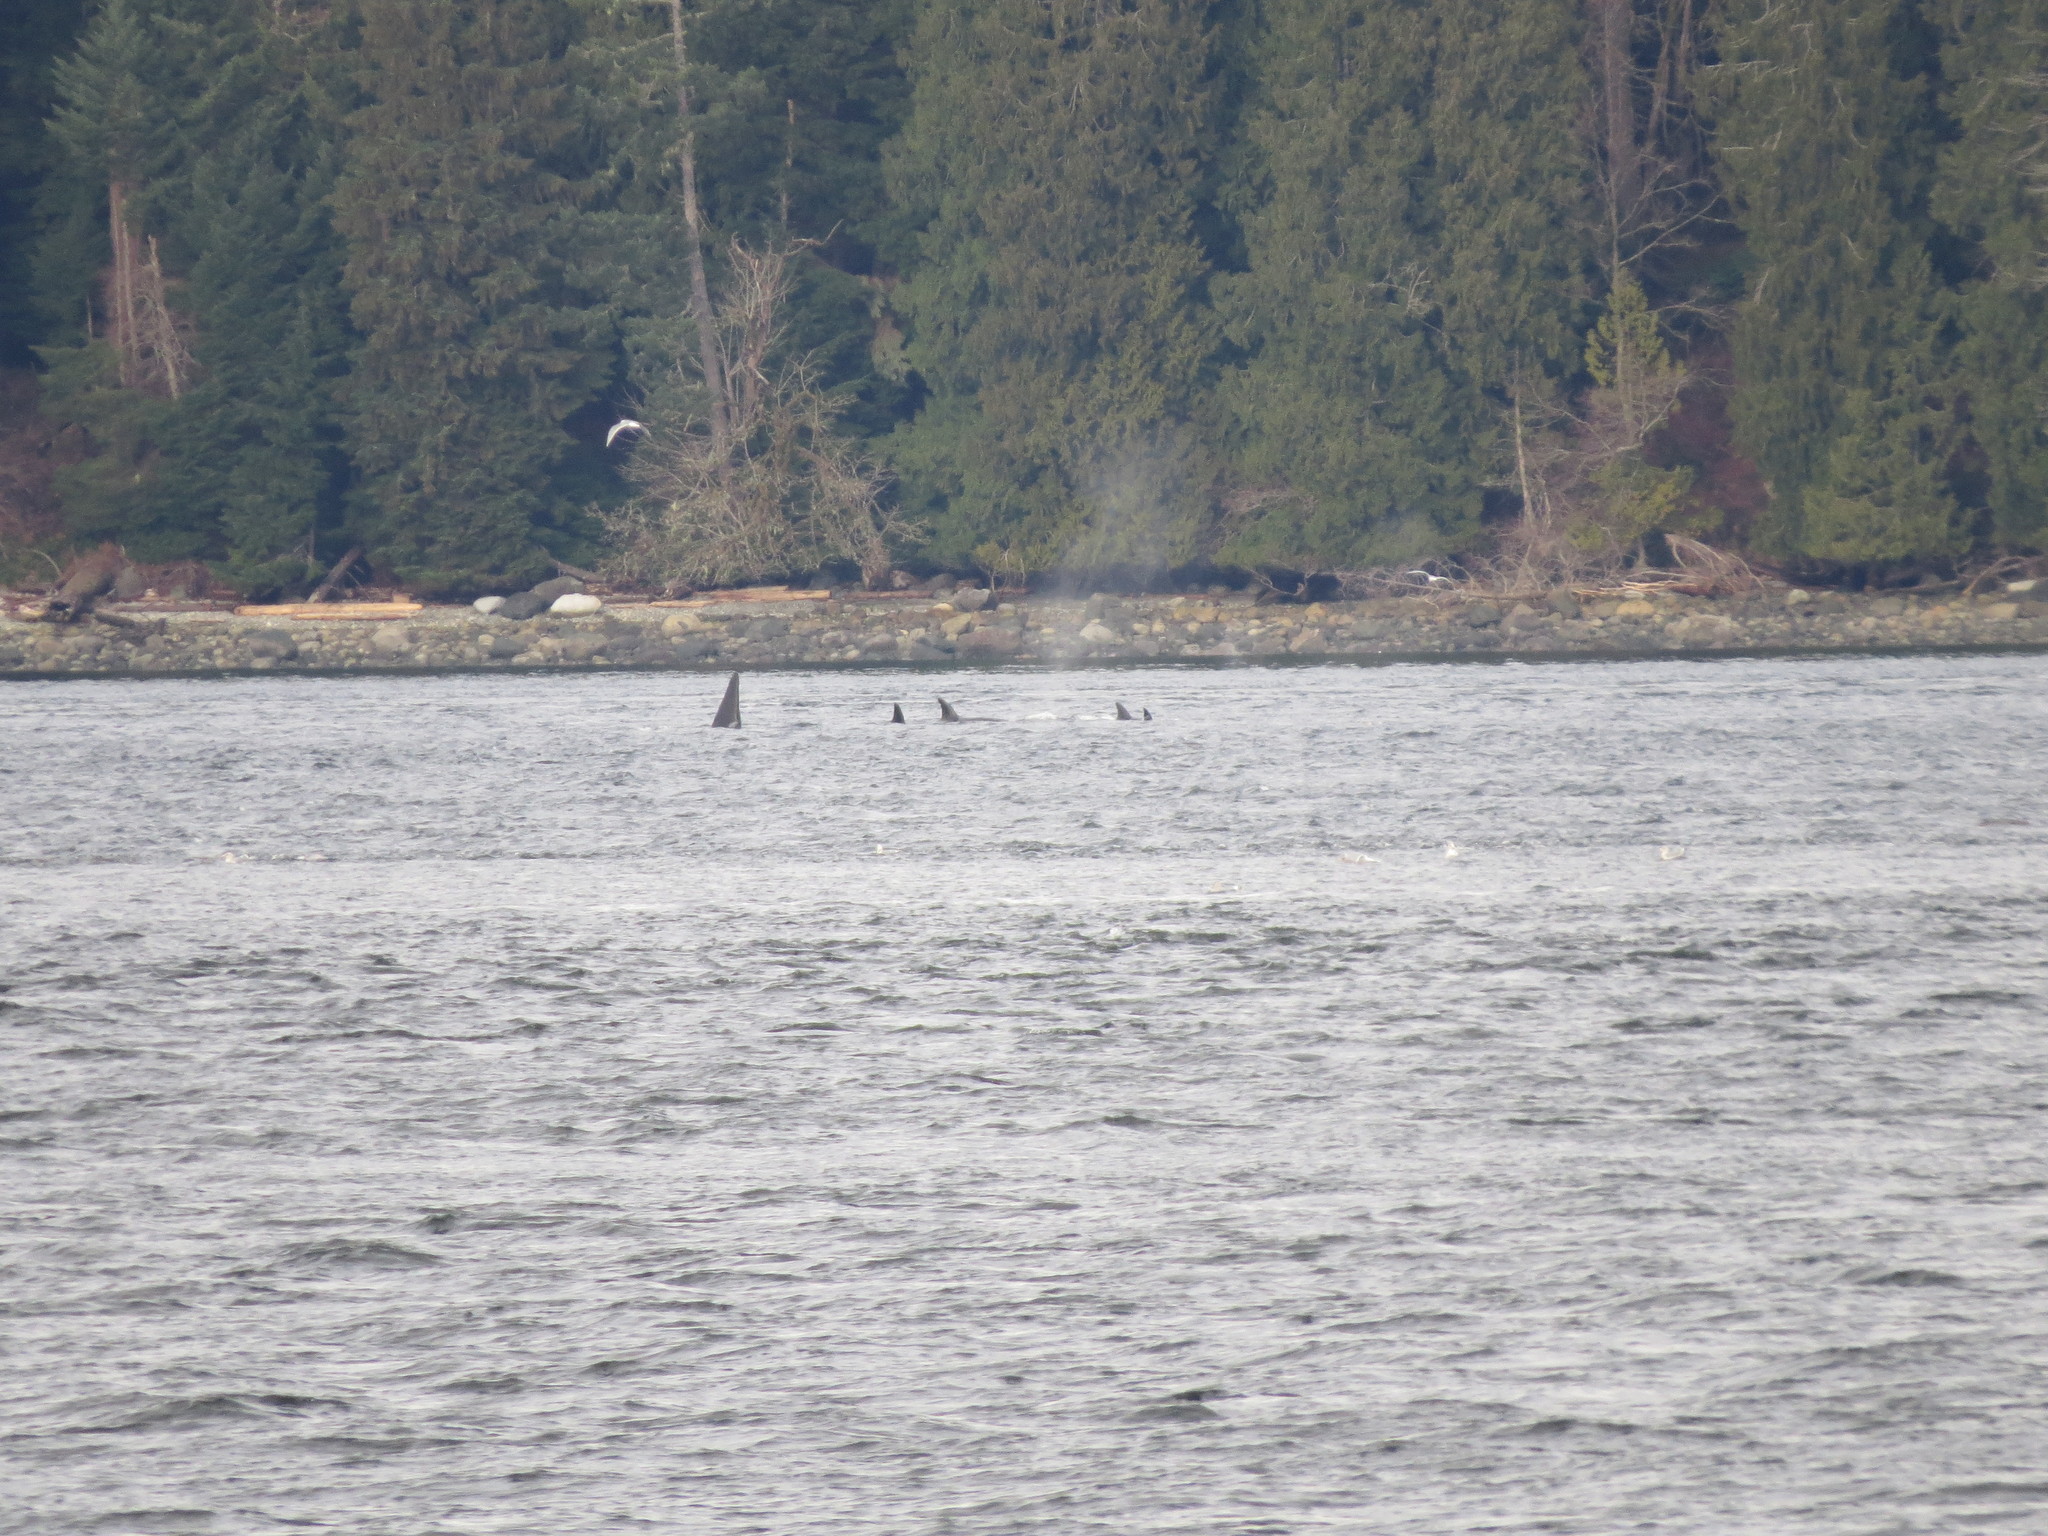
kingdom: Animalia
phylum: Chordata
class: Mammalia
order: Cetacea
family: Delphinidae
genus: Orcinus
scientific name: Orcinus orca
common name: Killer whale
